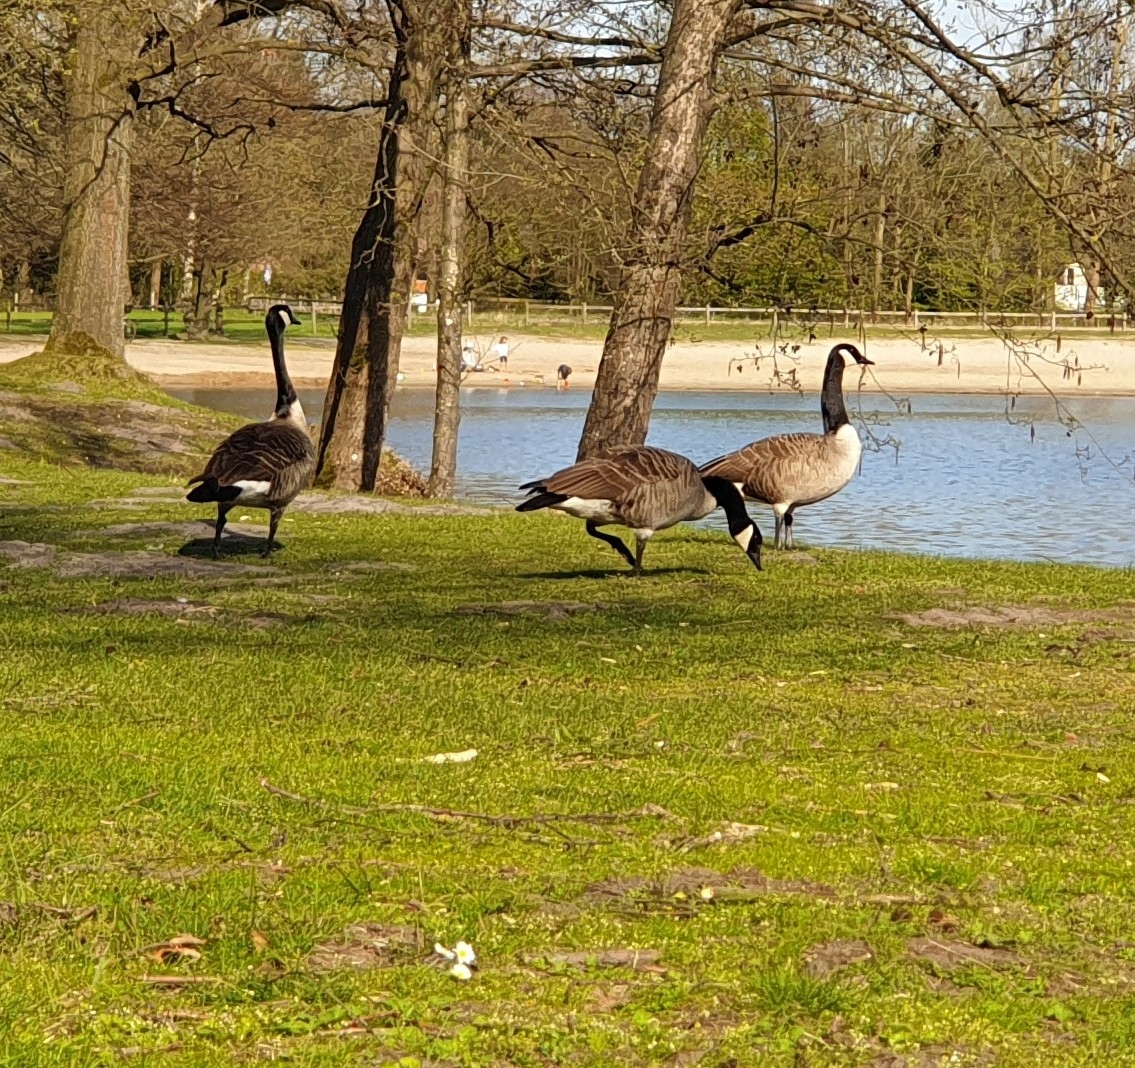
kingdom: Animalia
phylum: Chordata
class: Aves
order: Anseriformes
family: Anatidae
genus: Branta
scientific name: Branta canadensis
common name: Canada goose
